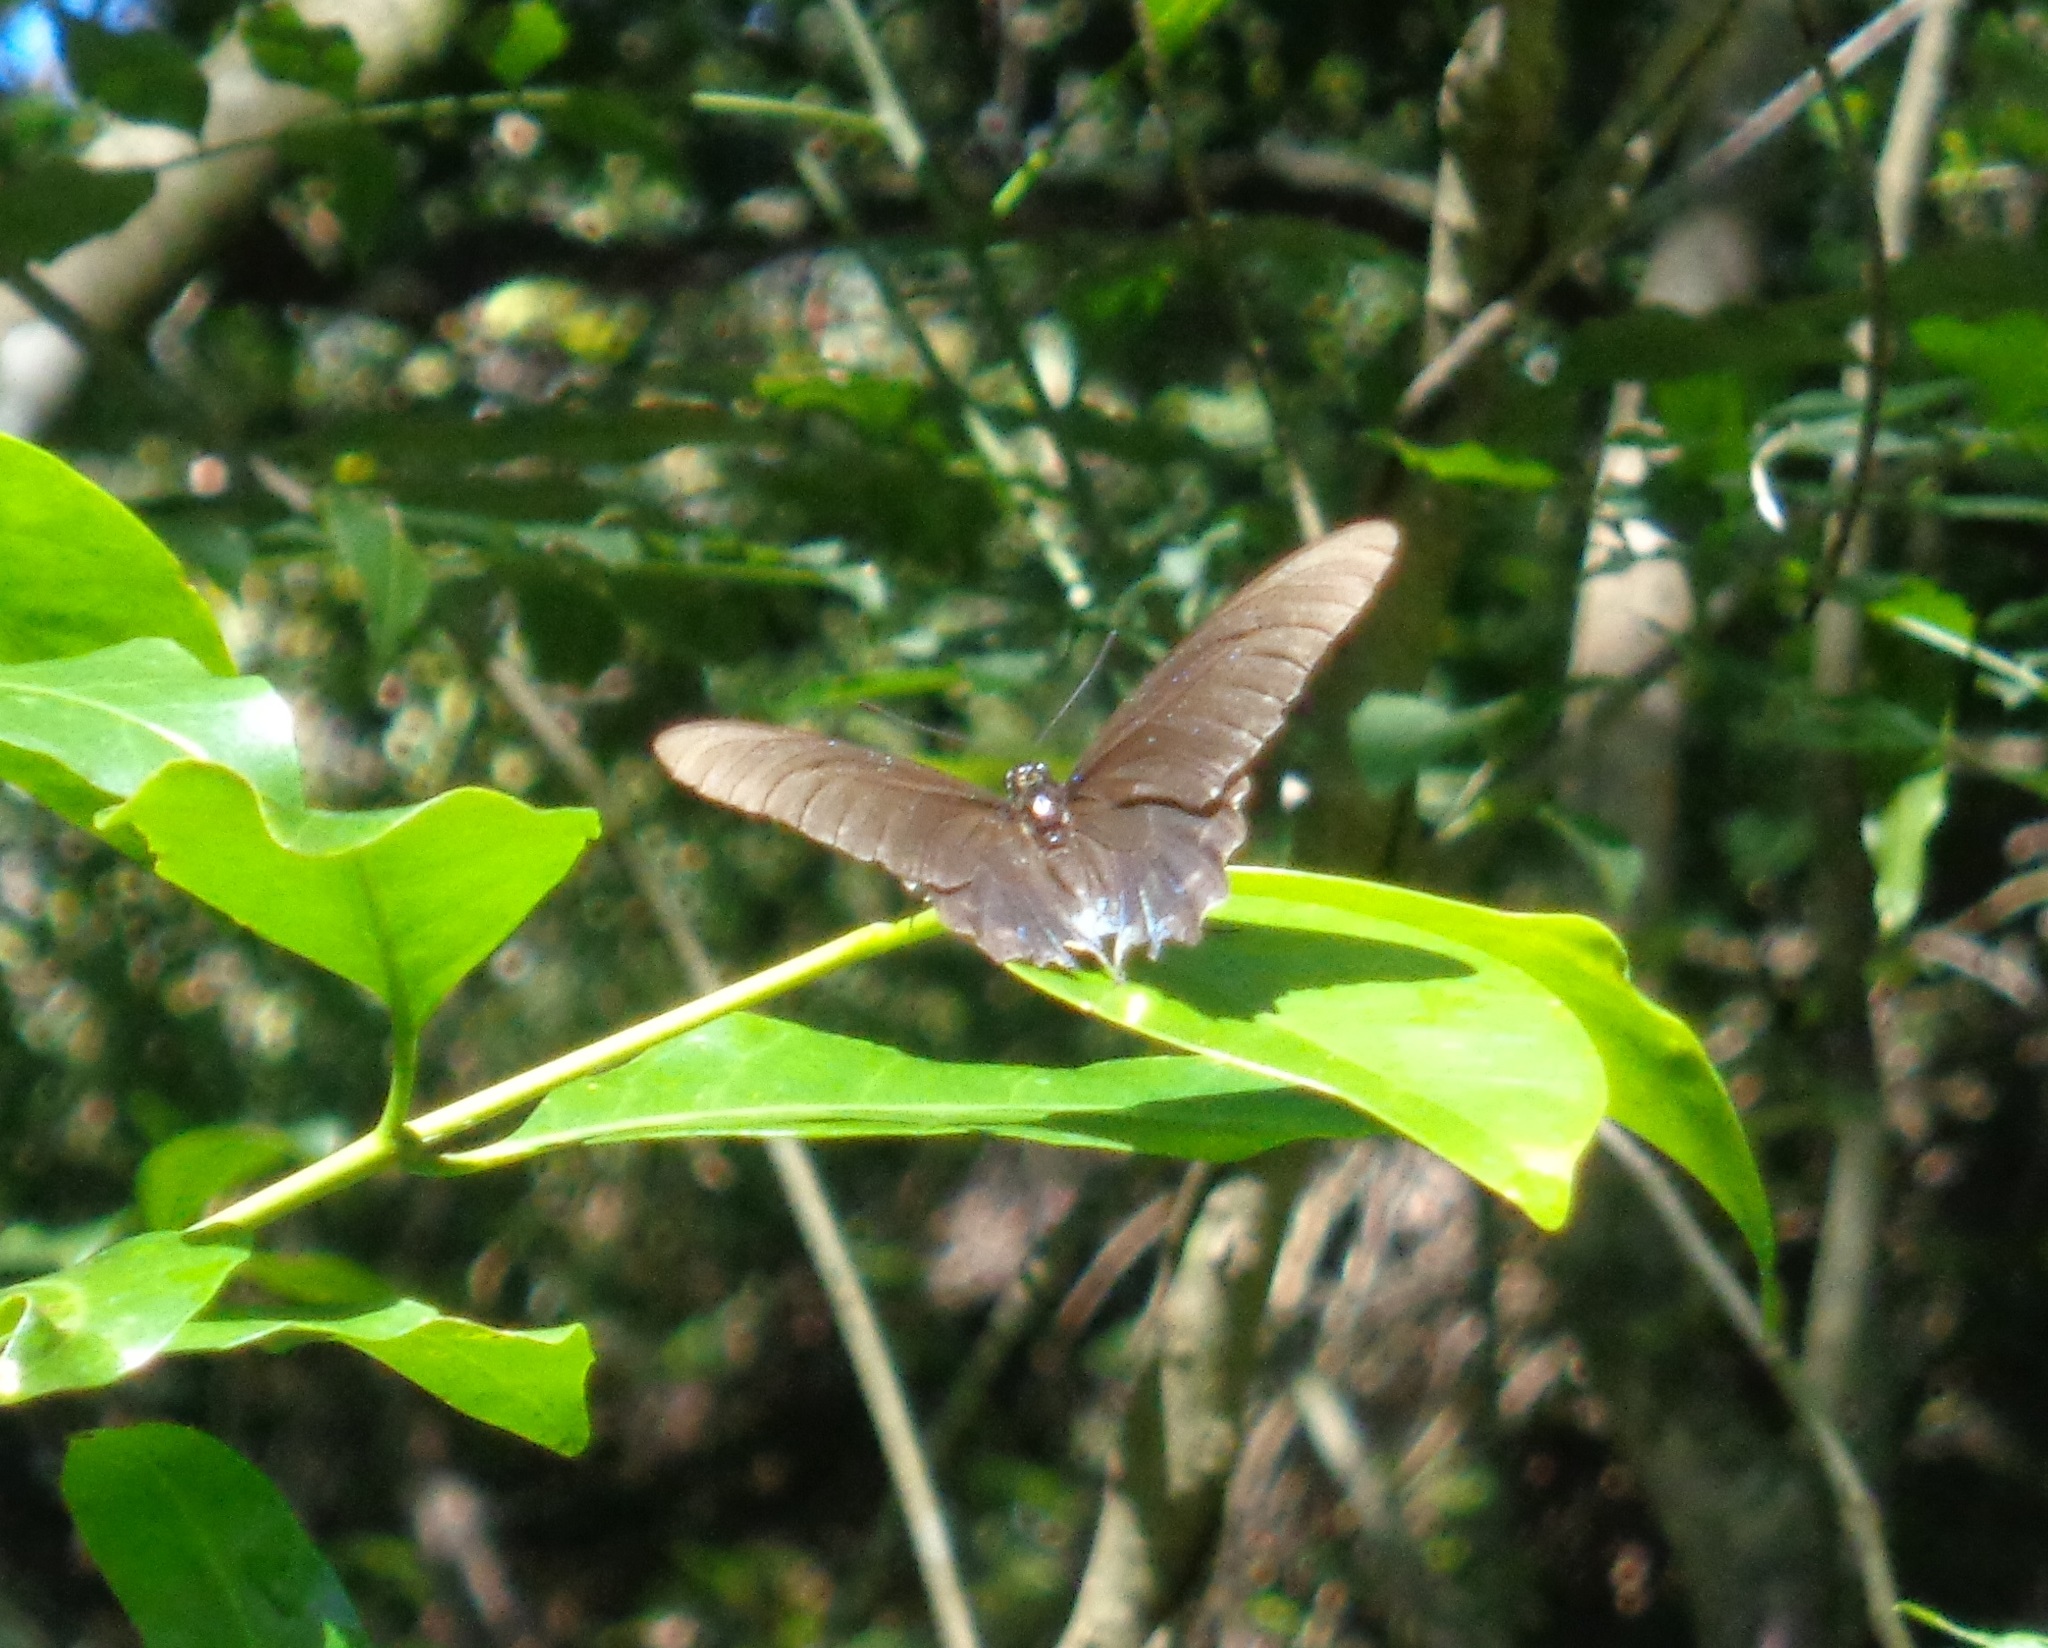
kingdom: Animalia
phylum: Arthropoda
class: Insecta
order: Lepidoptera
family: Papilionidae
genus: Battus
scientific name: Battus philenor
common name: Pipevine swallowtail
